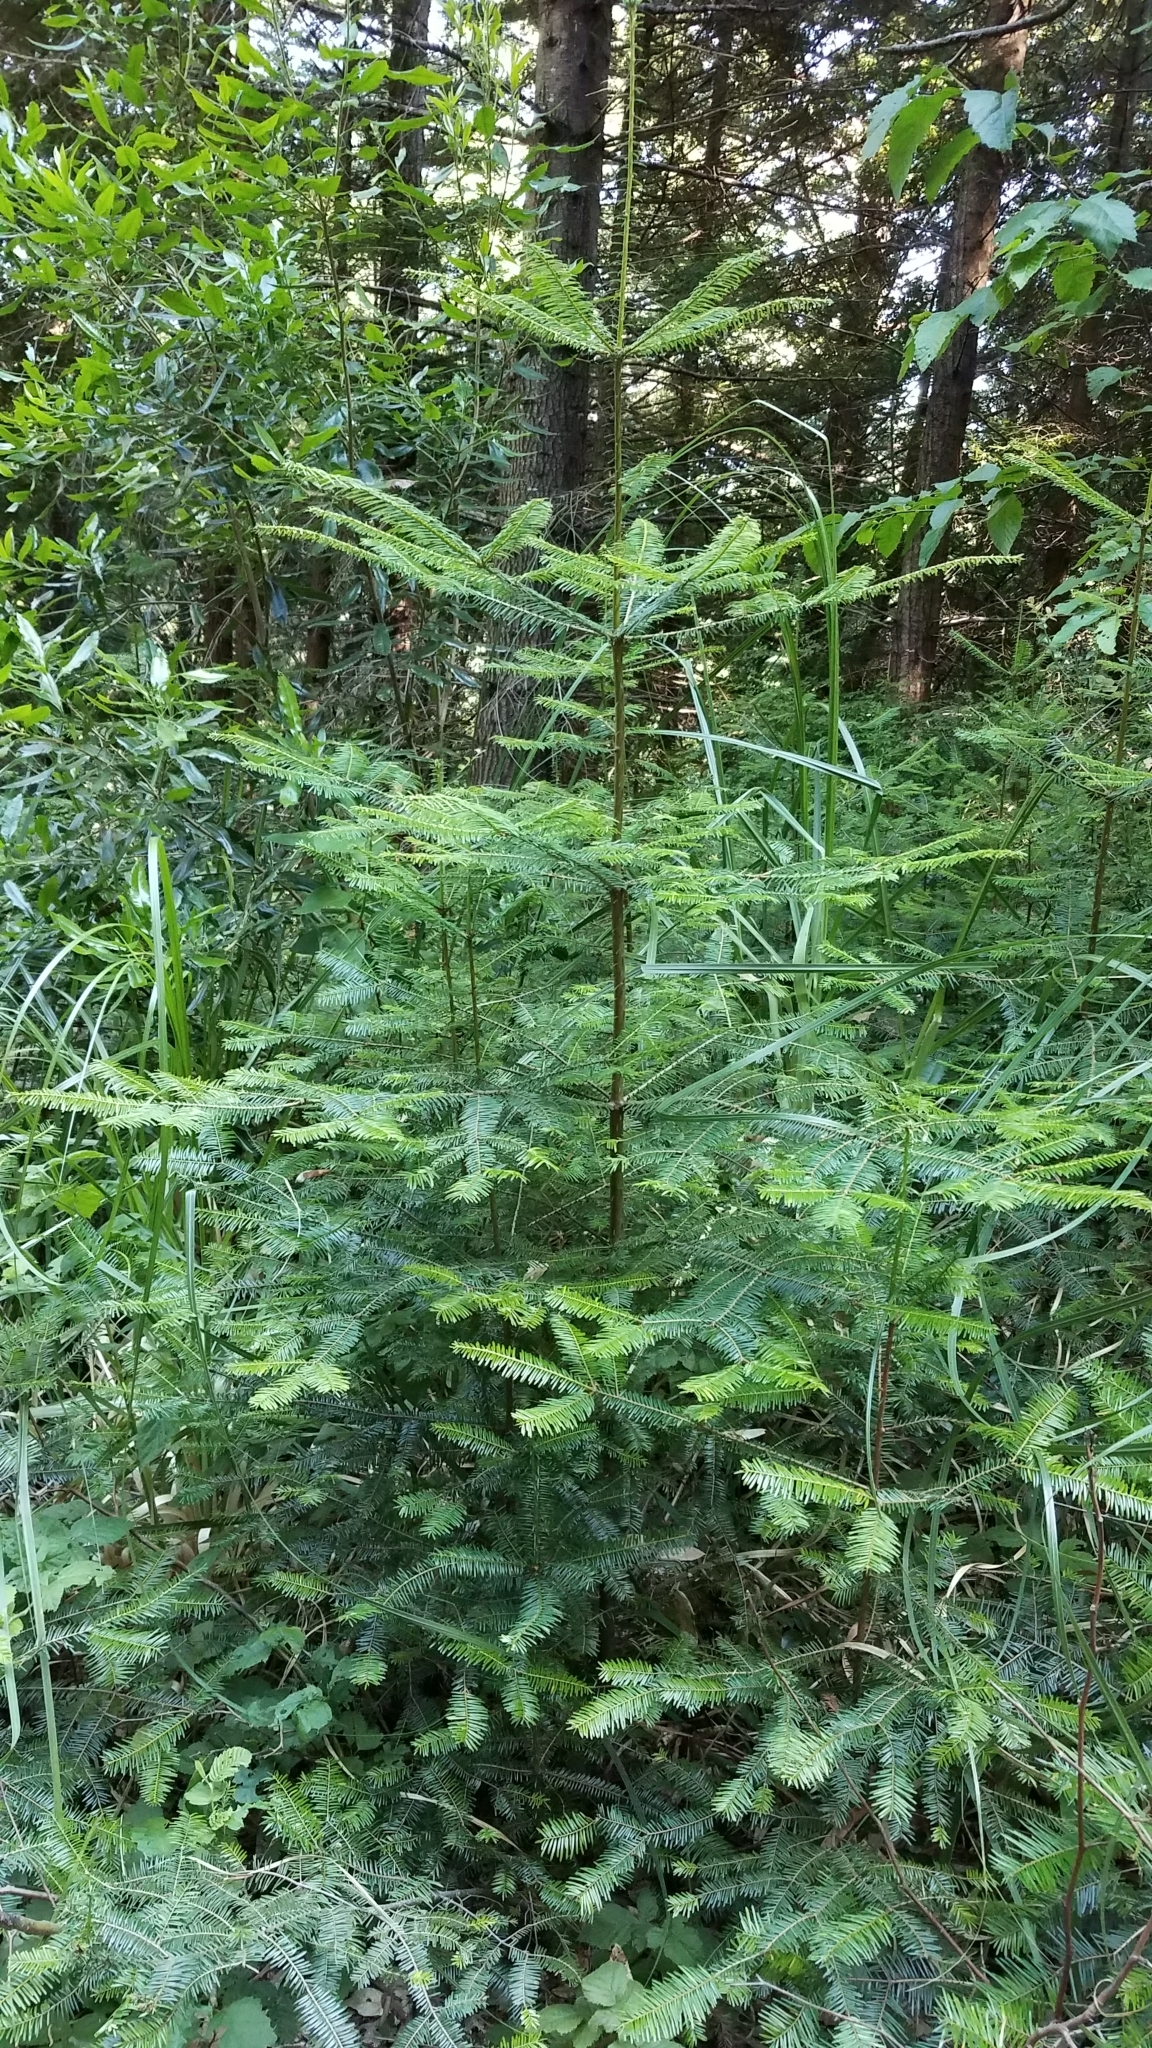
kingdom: Plantae
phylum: Tracheophyta
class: Pinopsida
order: Pinales
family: Pinaceae
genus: Abies
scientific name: Abies grandis
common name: Giant fir
